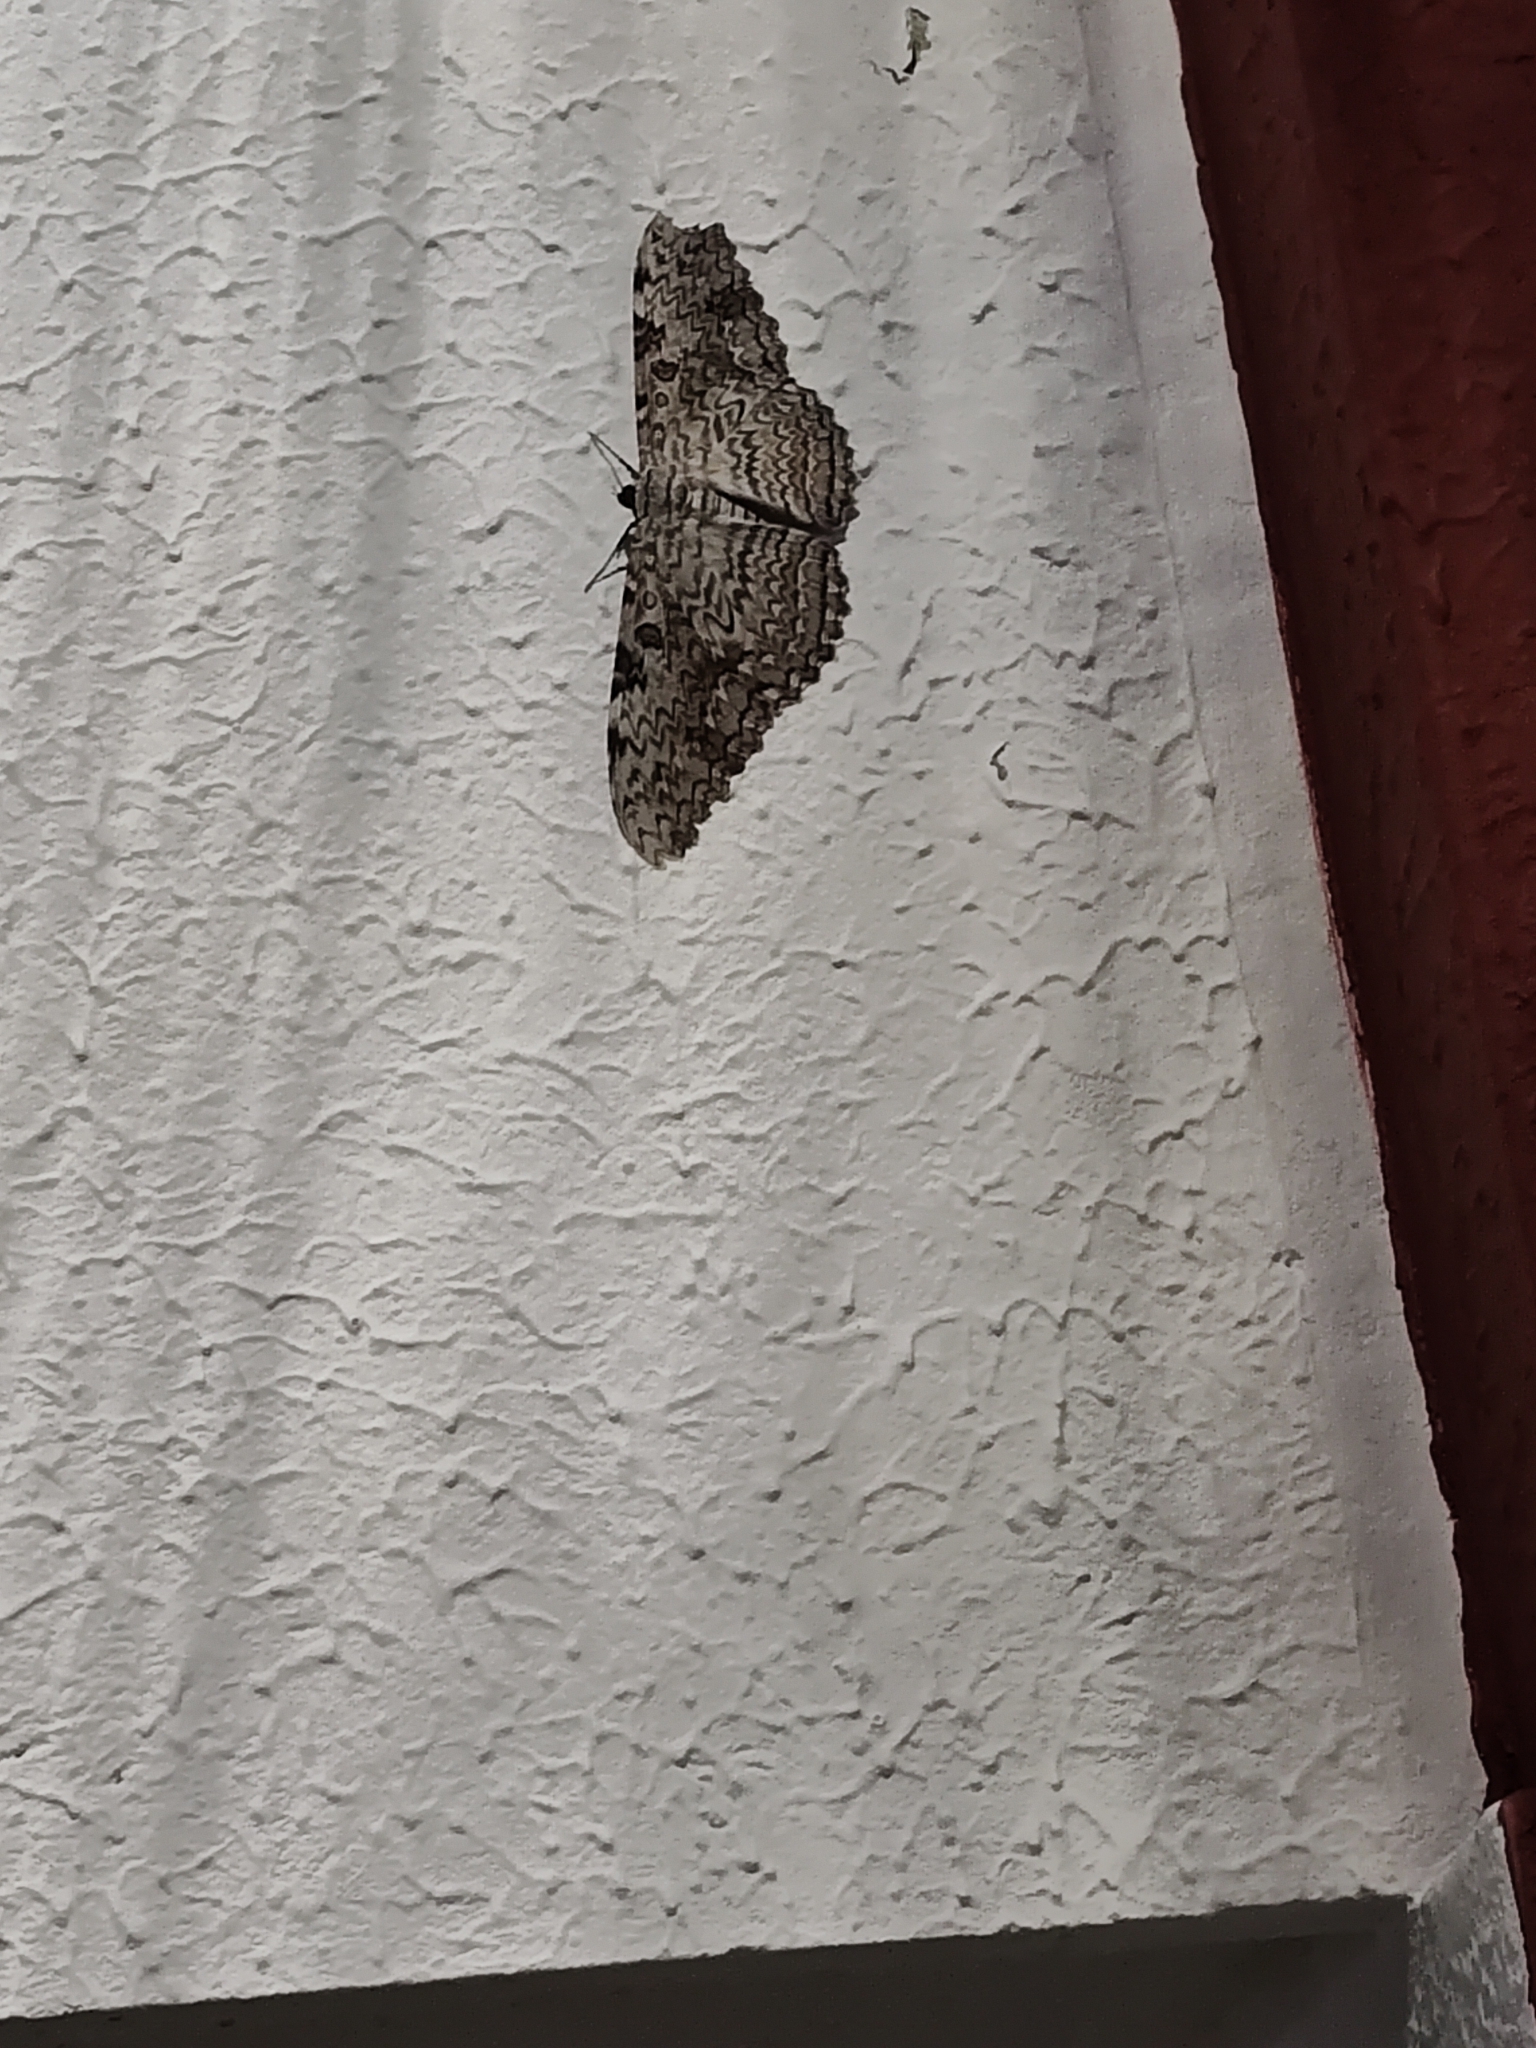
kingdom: Animalia
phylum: Arthropoda
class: Insecta
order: Lepidoptera
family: Erebidae
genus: Thysania
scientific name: Thysania agrippina
